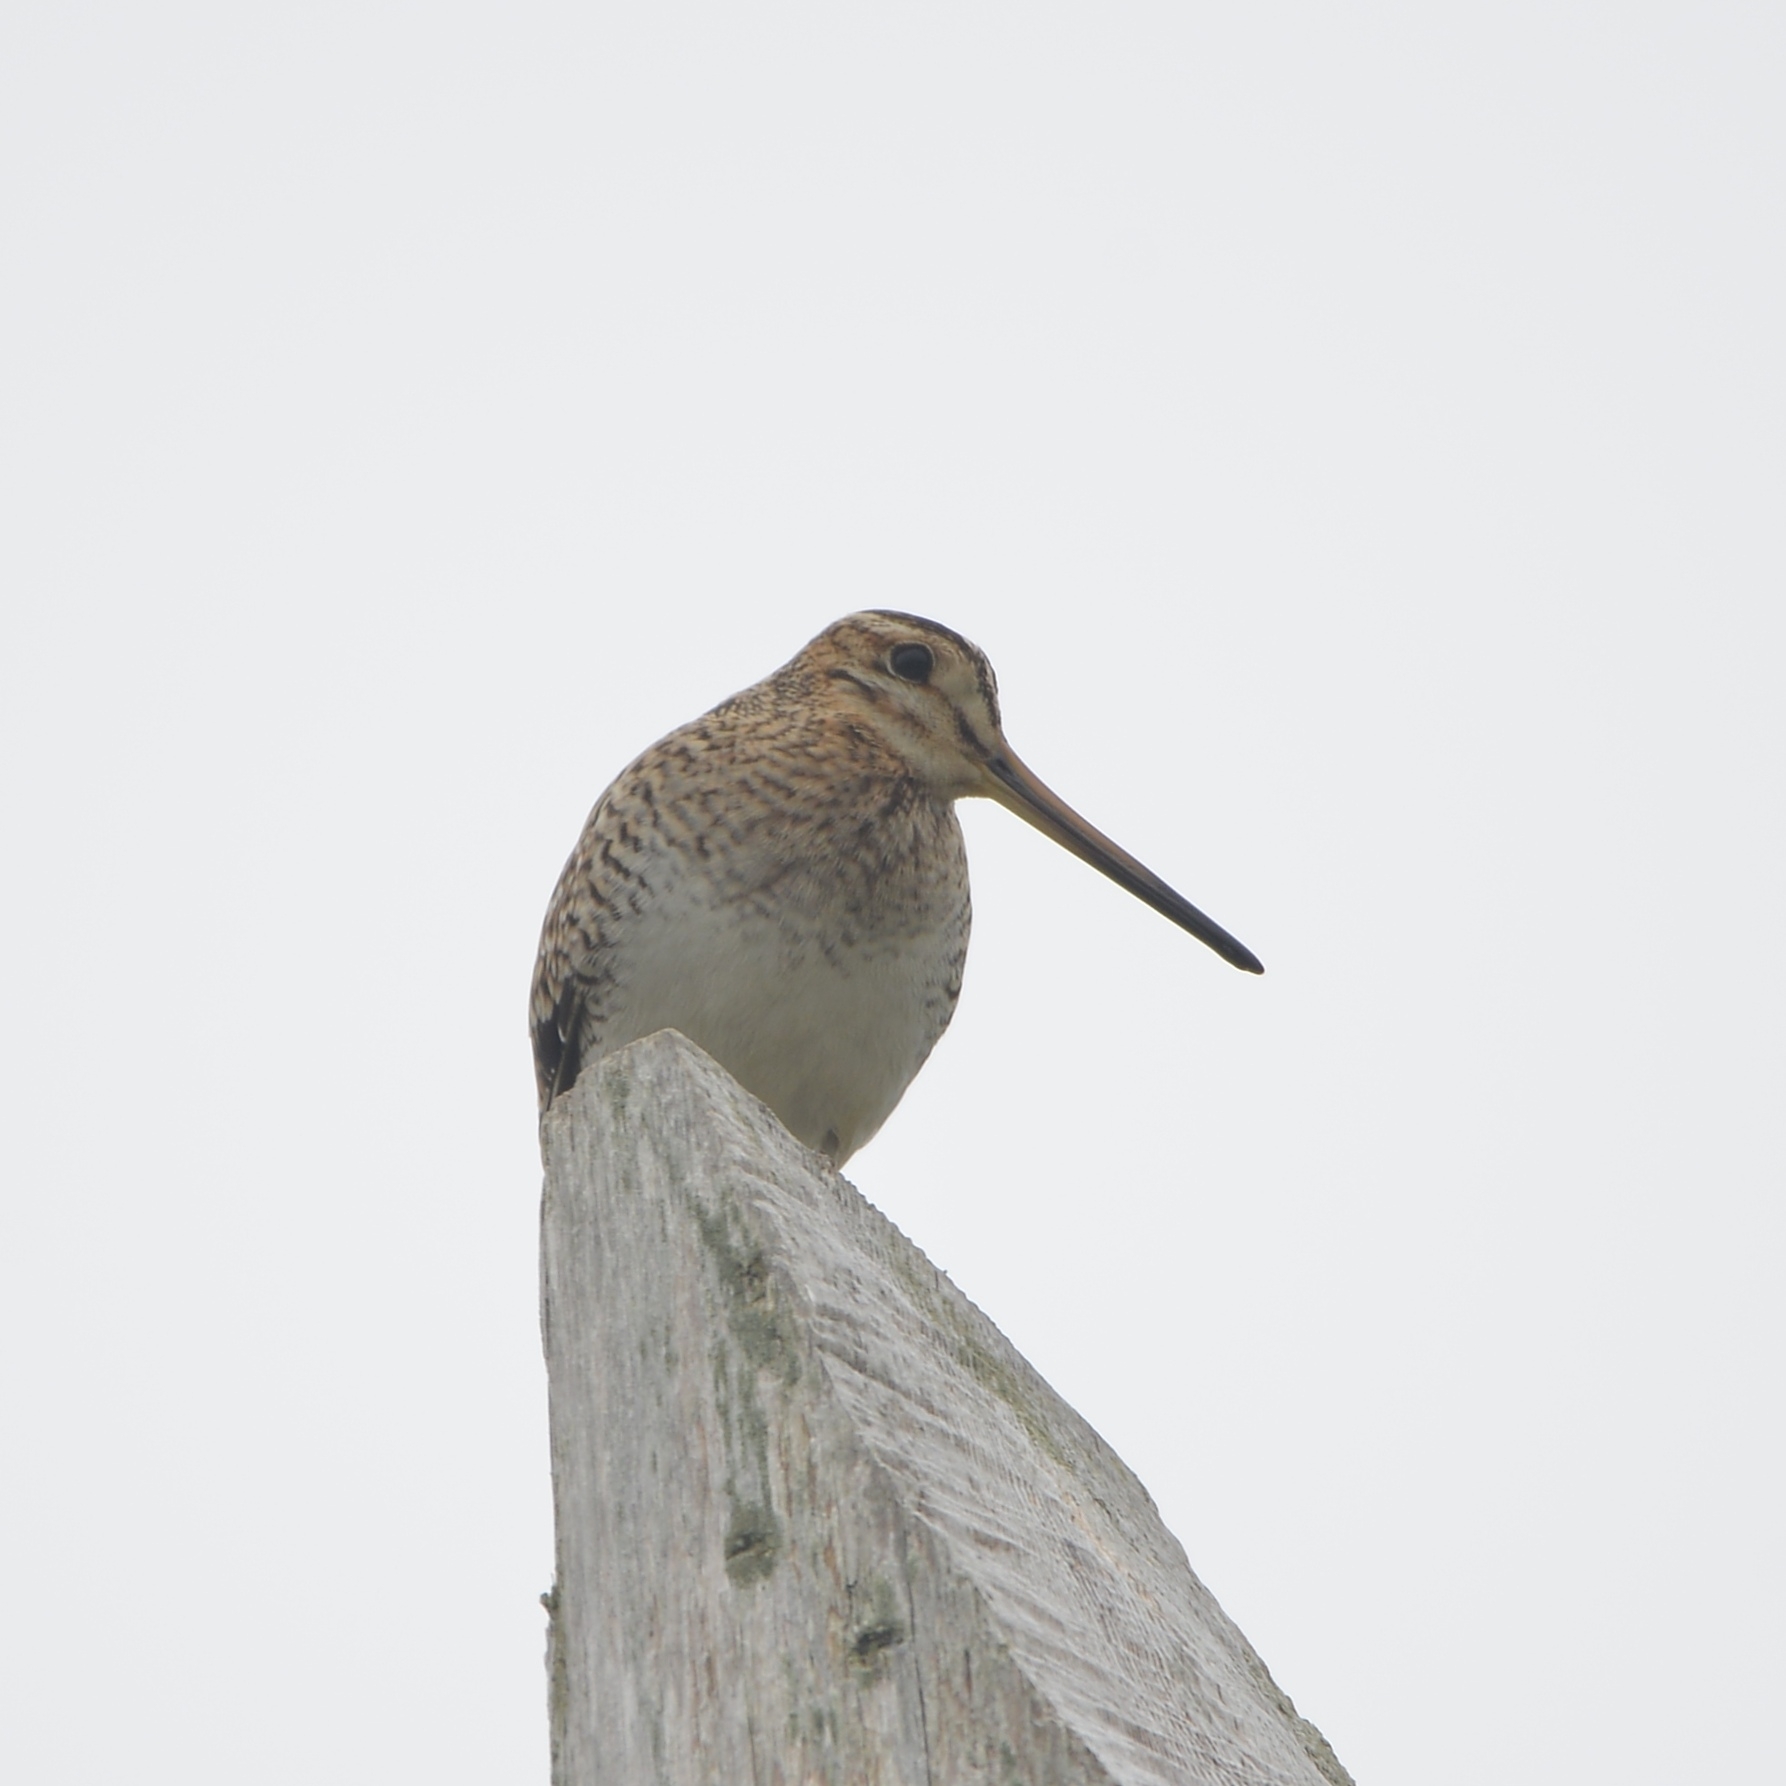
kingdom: Animalia
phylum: Chordata
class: Aves
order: Charadriiformes
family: Scolopacidae
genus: Gallinago
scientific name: Gallinago hardwickii
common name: Latham's snipe
